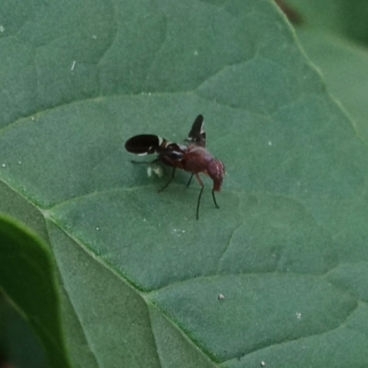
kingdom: Animalia
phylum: Arthropoda
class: Insecta
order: Diptera
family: Ulidiidae
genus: Delphinia
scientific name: Delphinia picta
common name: Common picture-winged fly
